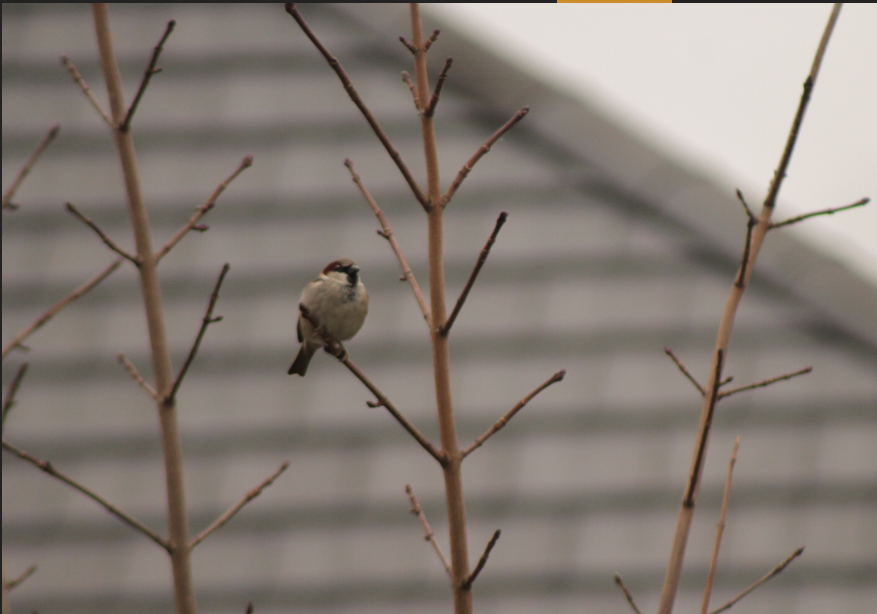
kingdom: Animalia
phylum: Chordata
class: Aves
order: Passeriformes
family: Passeridae
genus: Passer
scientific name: Passer domesticus
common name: House sparrow
